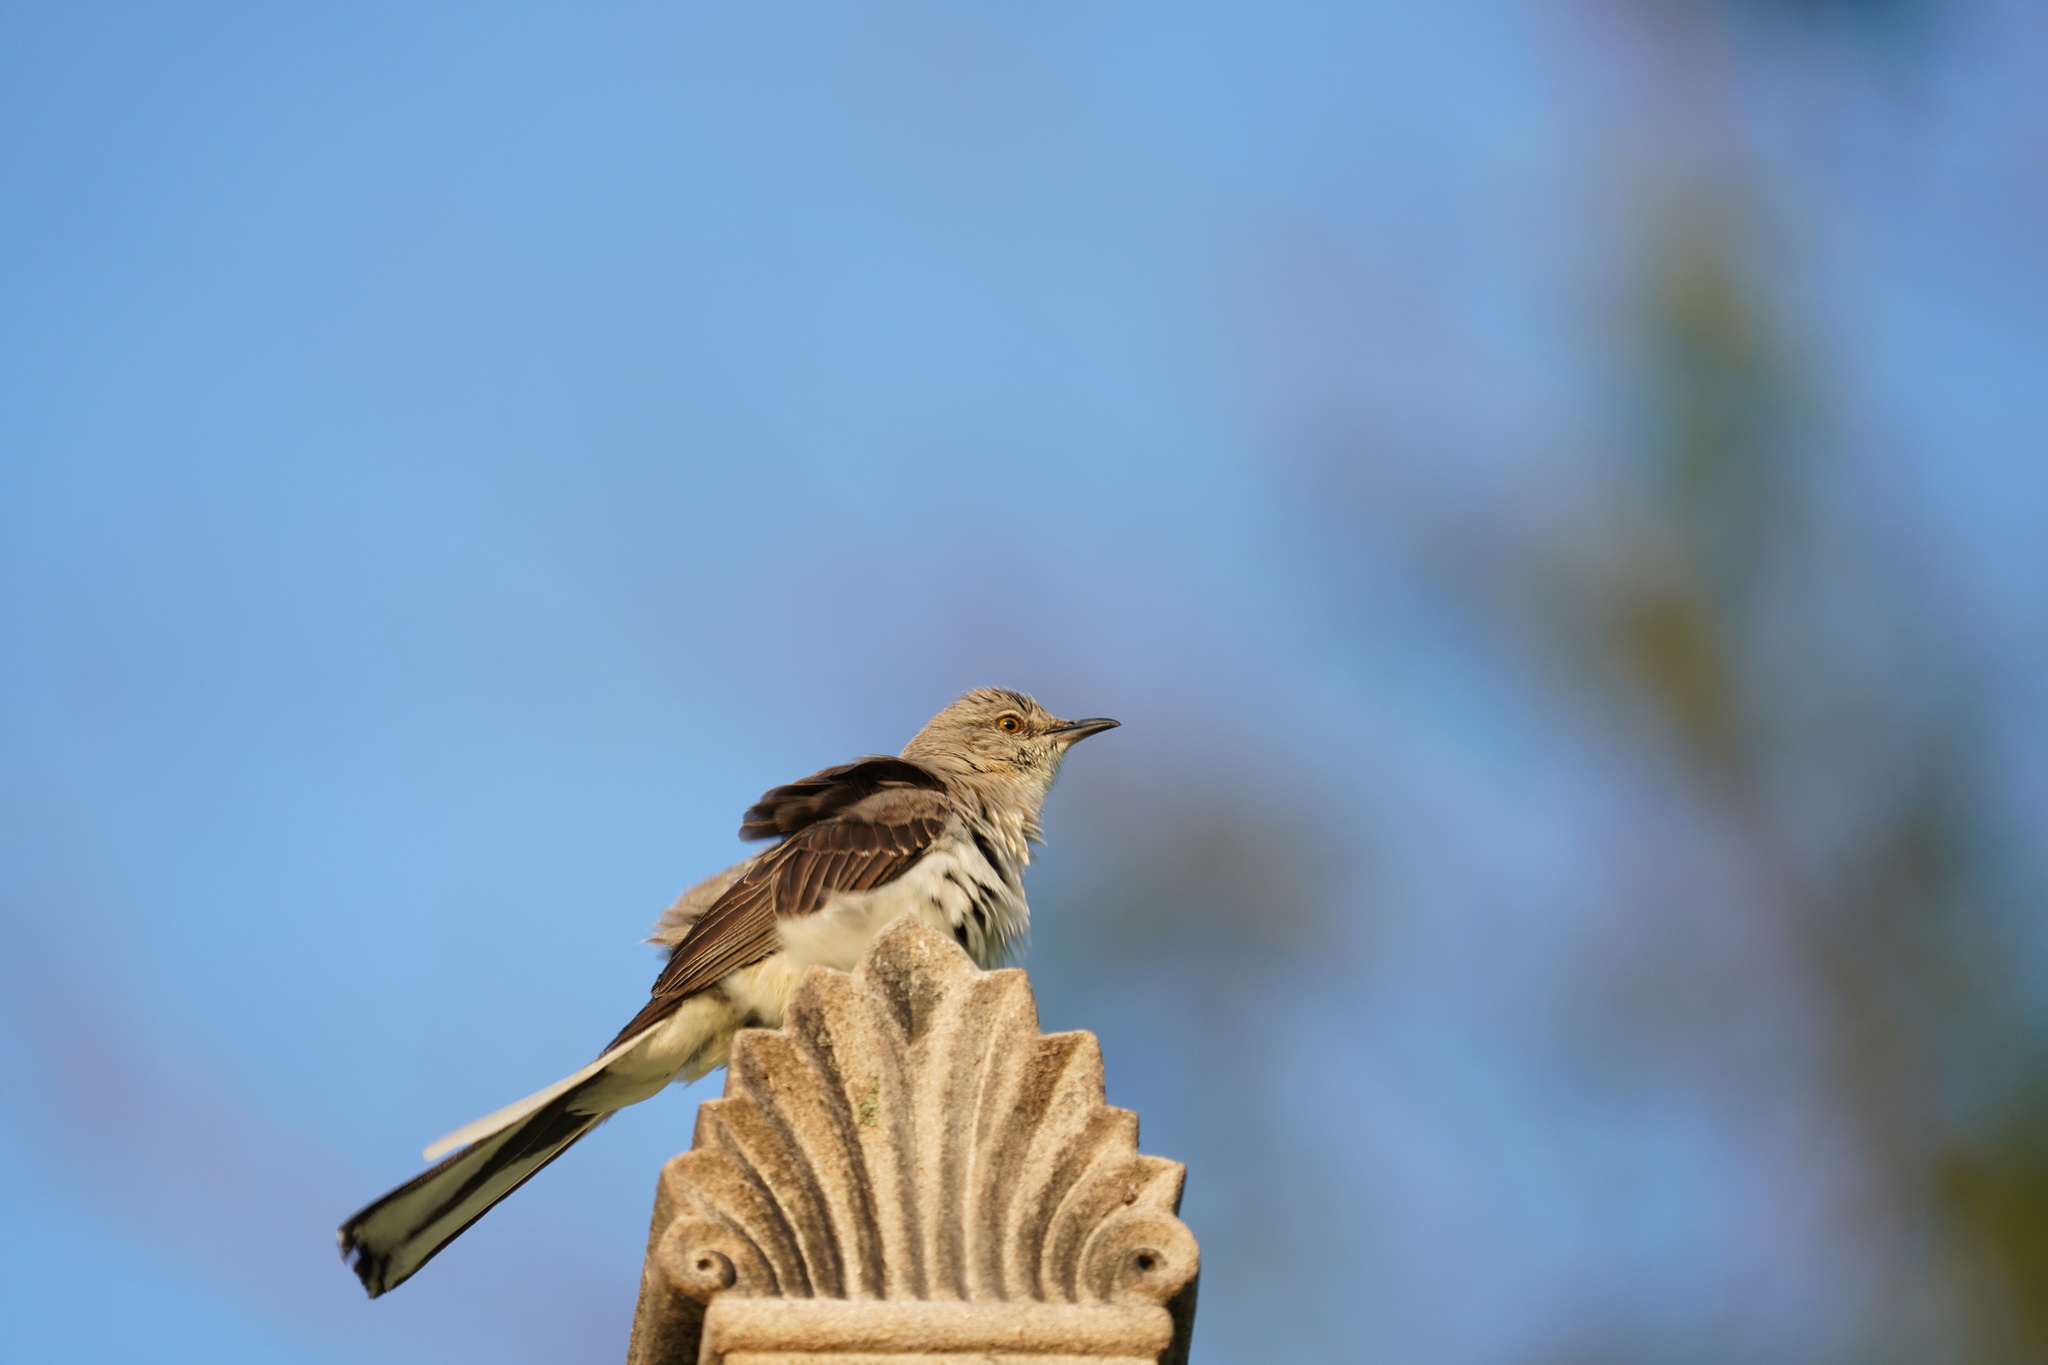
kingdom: Animalia
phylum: Chordata
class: Aves
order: Passeriformes
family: Mimidae
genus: Mimus
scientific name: Mimus polyglottos
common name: Northern mockingbird
